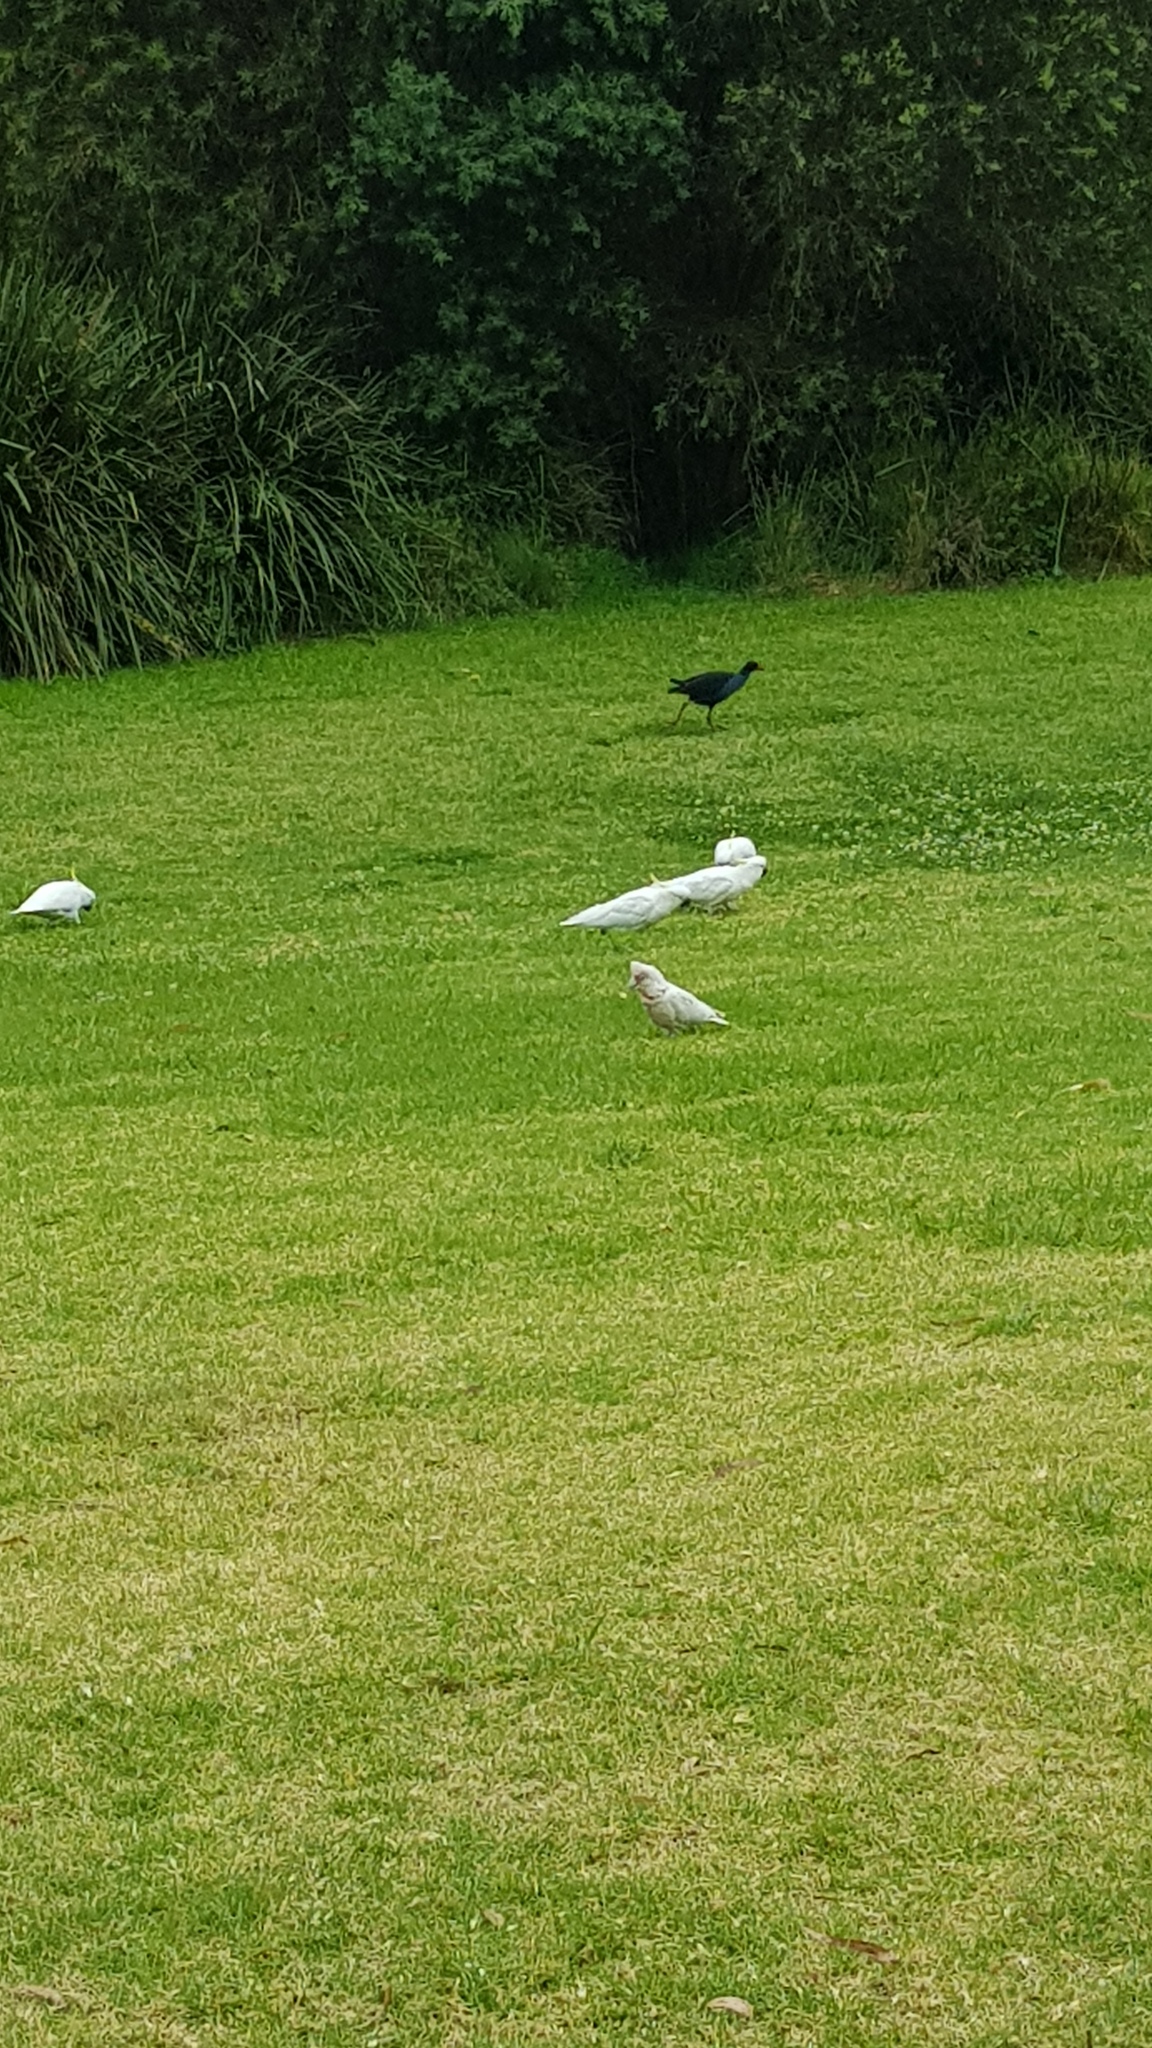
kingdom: Animalia
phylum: Chordata
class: Aves
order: Psittaciformes
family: Psittacidae
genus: Cacatua
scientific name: Cacatua sanguinea
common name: Little corella
